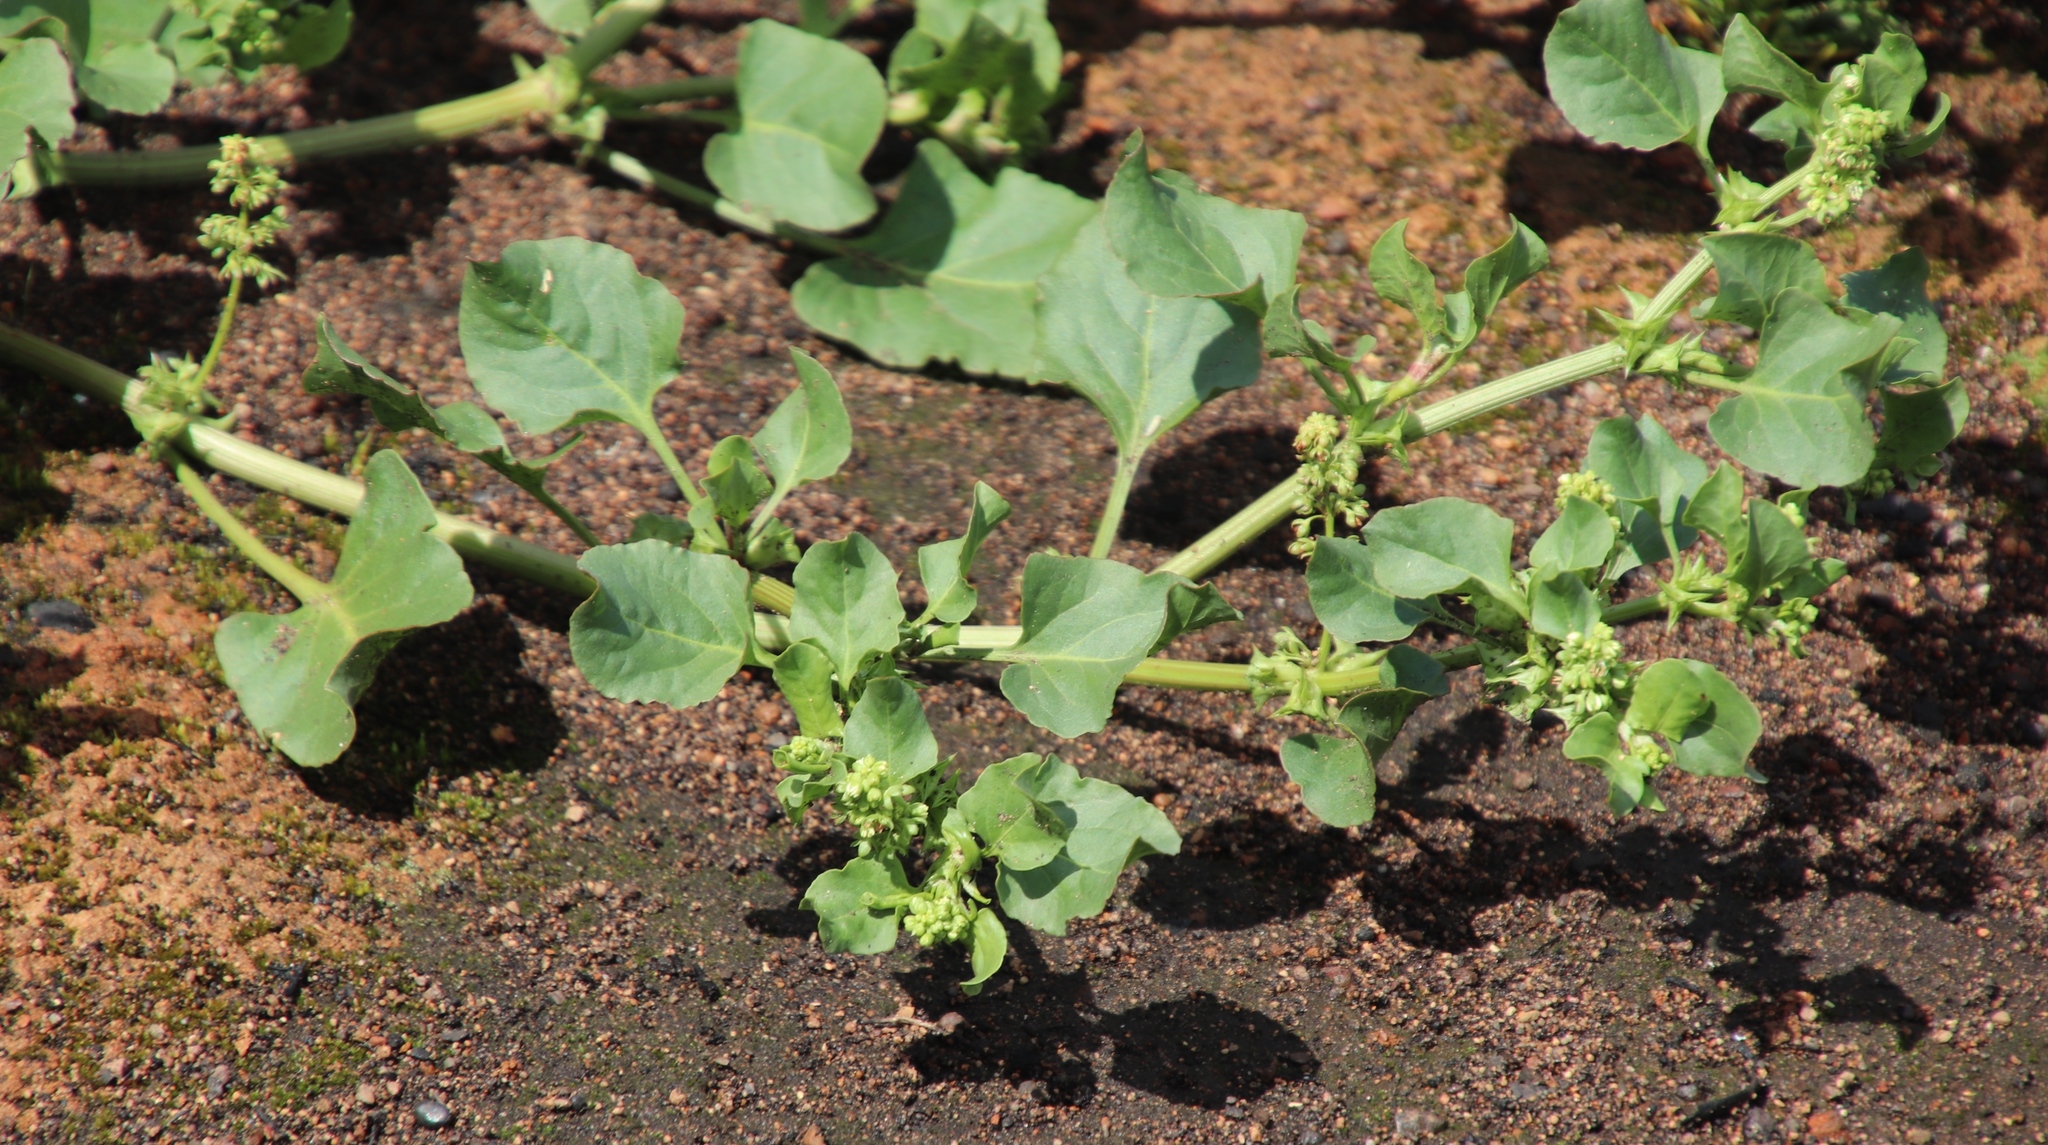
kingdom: Plantae
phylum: Tracheophyta
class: Magnoliopsida
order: Caryophyllales
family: Polygonaceae
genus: Rumex
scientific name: Rumex hypogaeus
